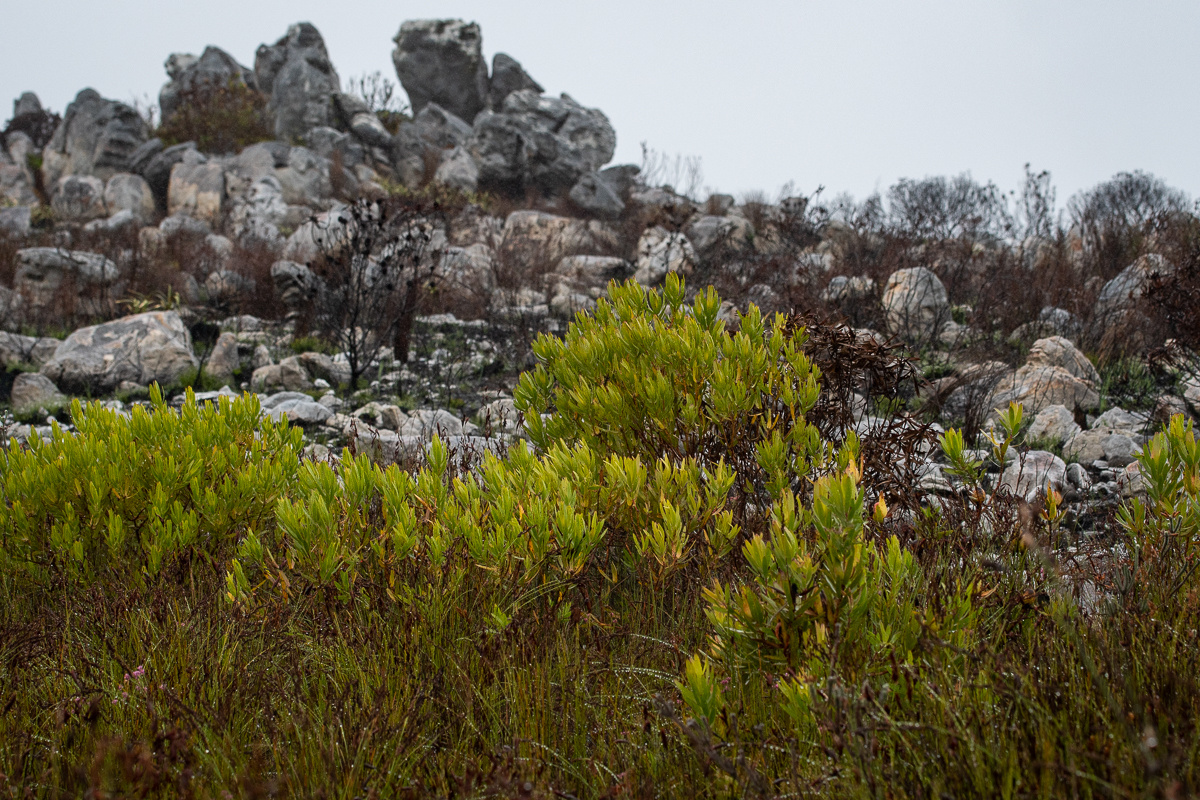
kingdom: Plantae
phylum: Tracheophyta
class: Magnoliopsida
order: Proteales
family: Proteaceae
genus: Leucadendron
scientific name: Leucadendron laureolum
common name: Golden sunshinebush
